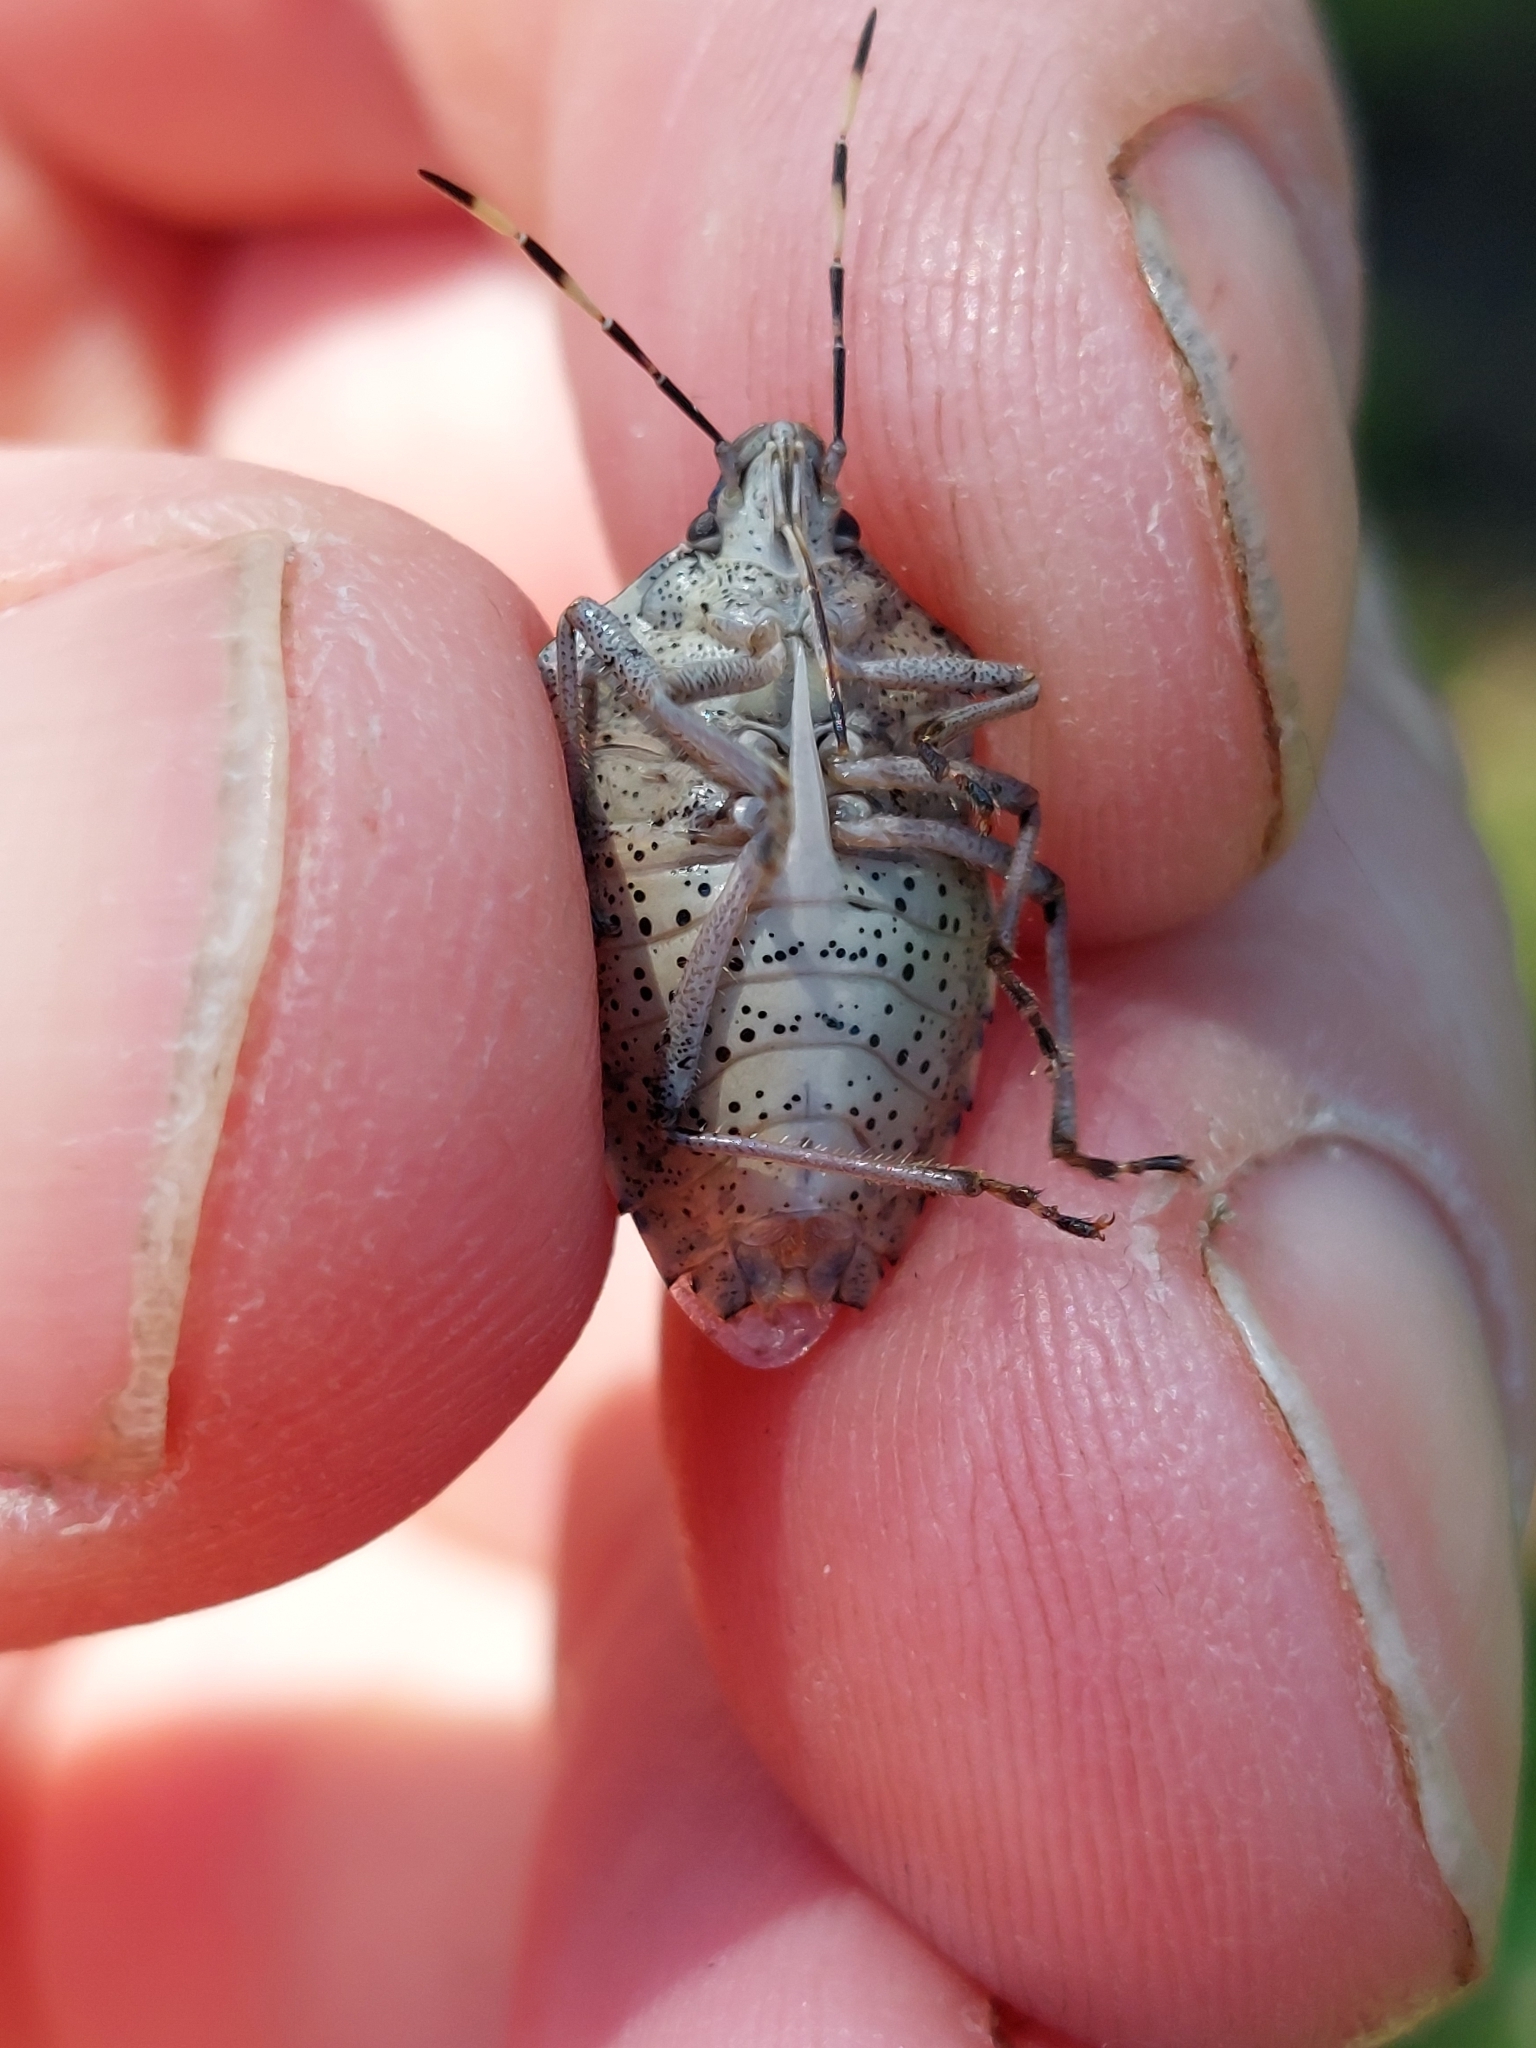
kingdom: Animalia
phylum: Arthropoda
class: Insecta
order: Hemiptera
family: Pentatomidae
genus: Rhaphigaster
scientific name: Rhaphigaster nebulosa
